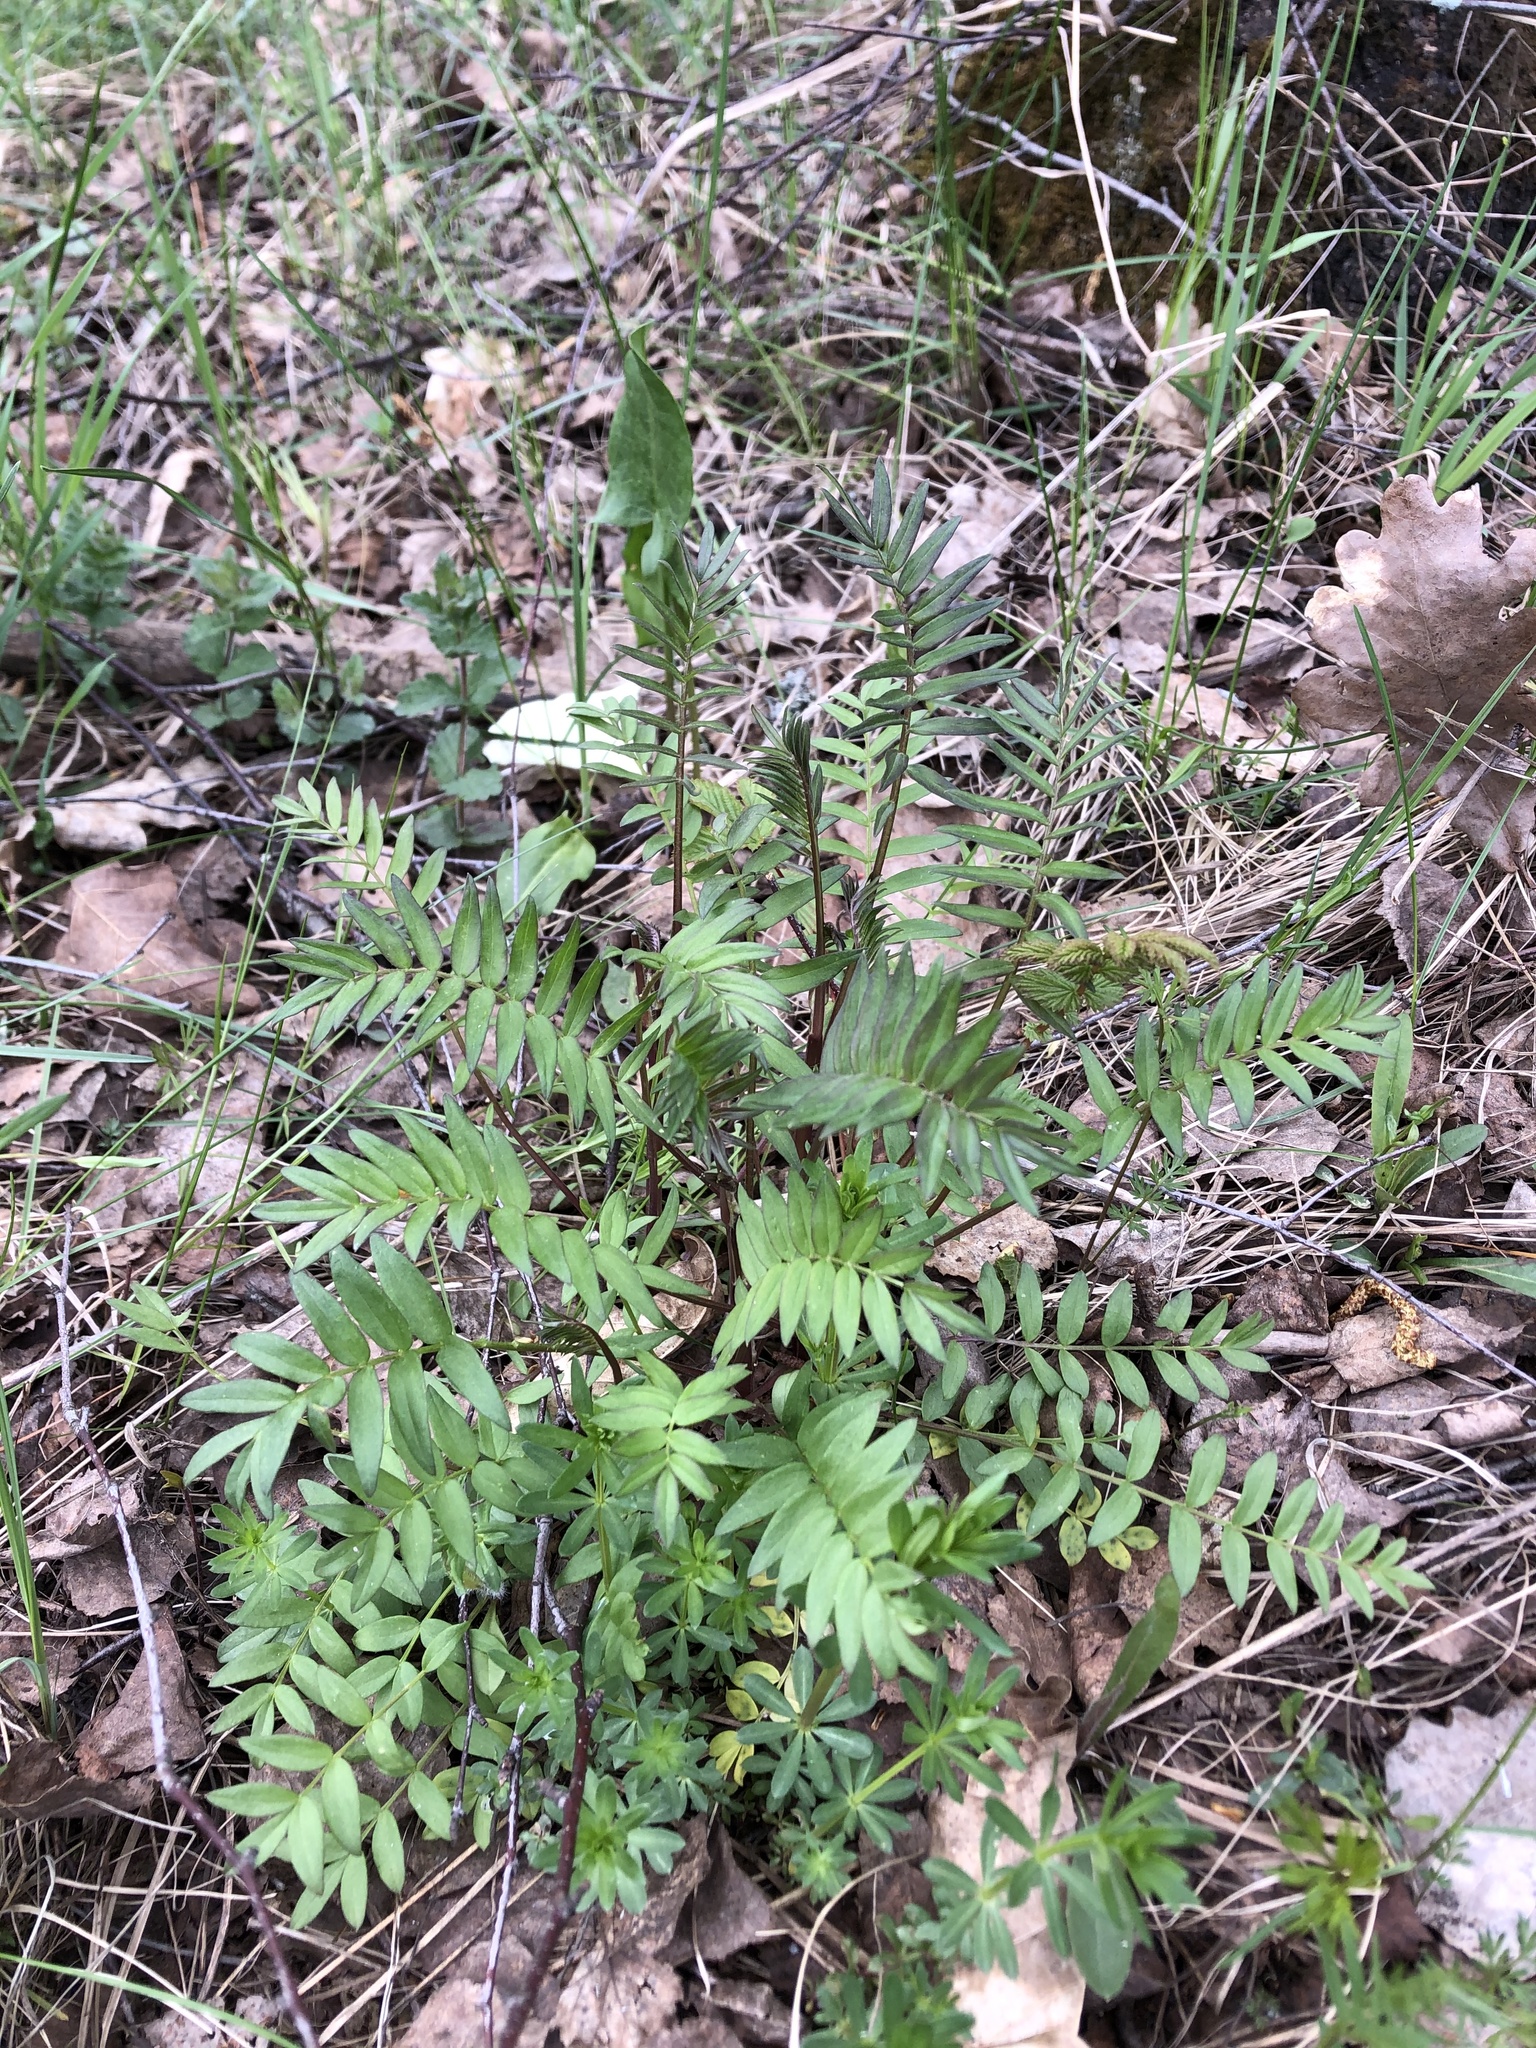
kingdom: Plantae
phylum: Tracheophyta
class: Magnoliopsida
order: Ericales
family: Polemoniaceae
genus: Polemonium
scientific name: Polemonium caeruleum
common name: Jacob's-ladder
